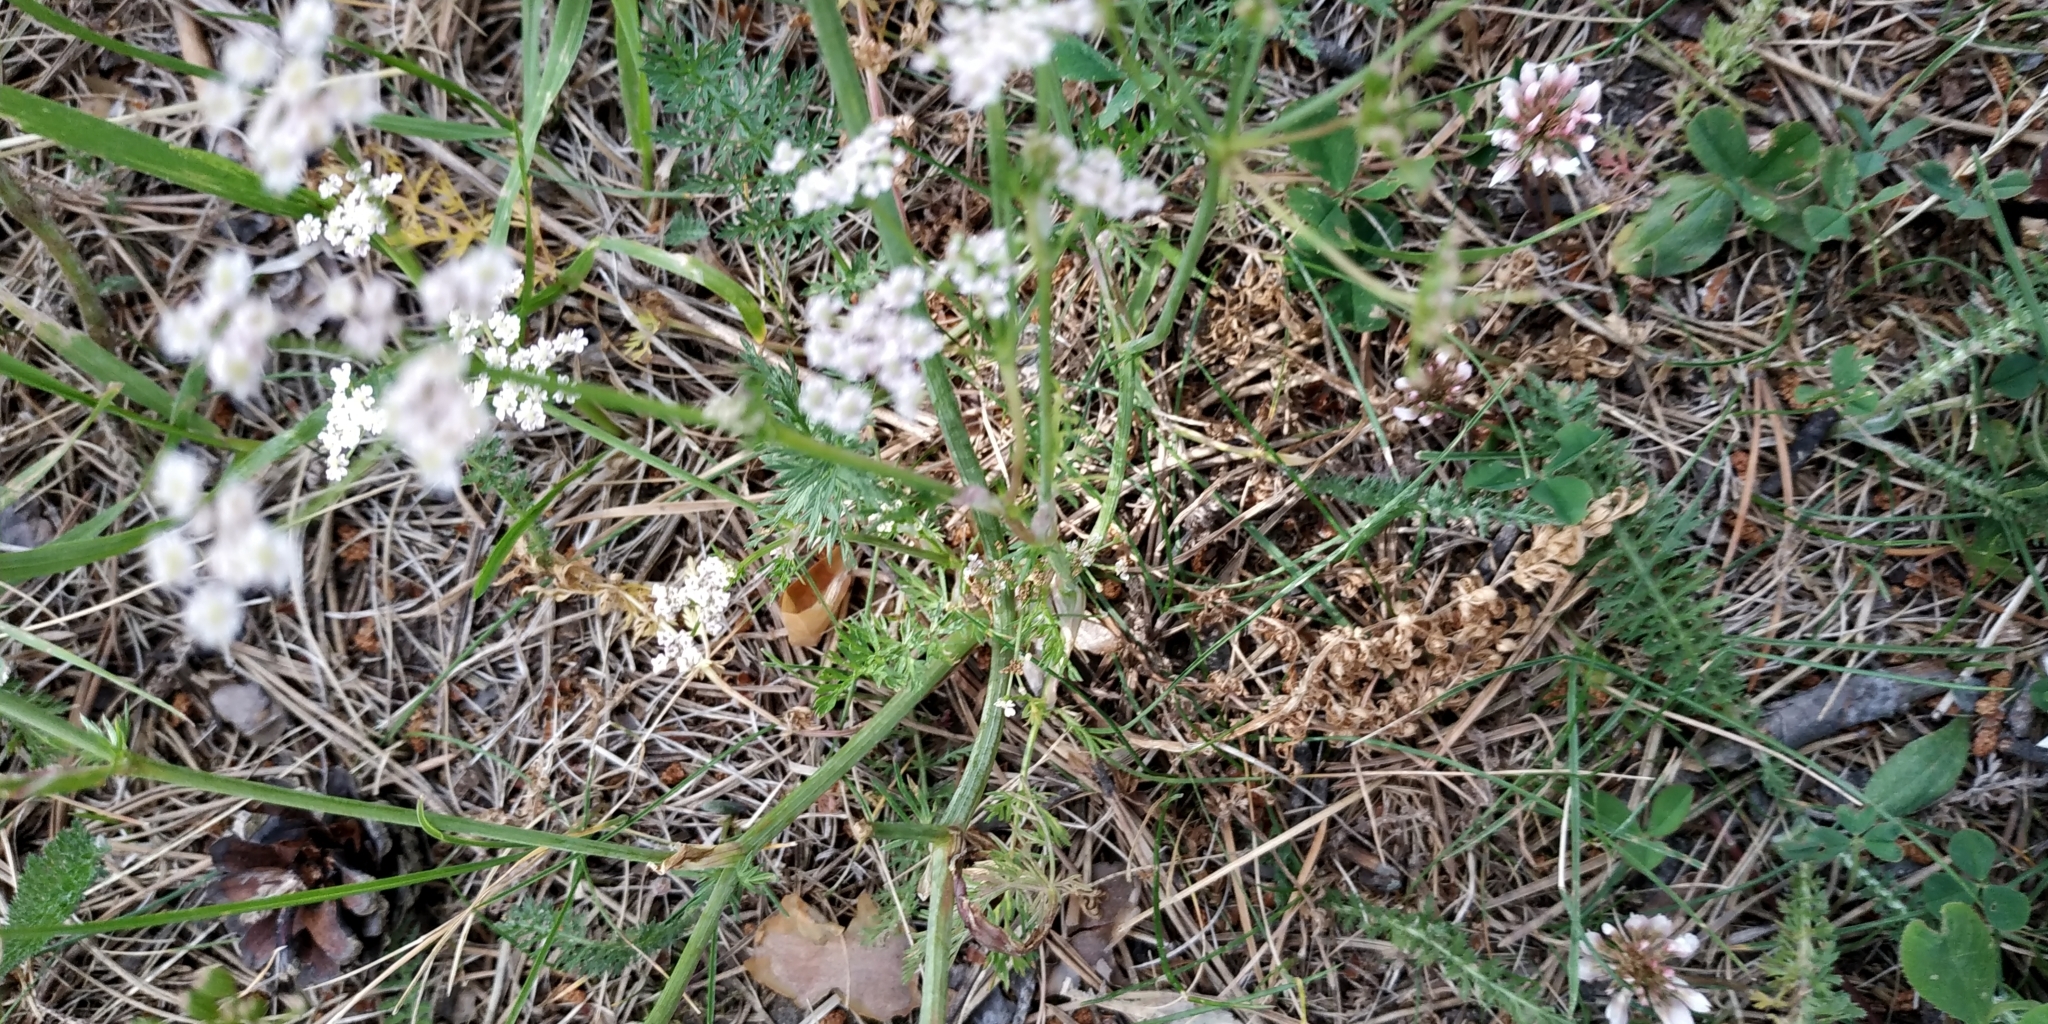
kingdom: Plantae
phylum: Tracheophyta
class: Magnoliopsida
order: Apiales
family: Apiaceae
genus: Carum
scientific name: Carum carvi
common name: Caraway
